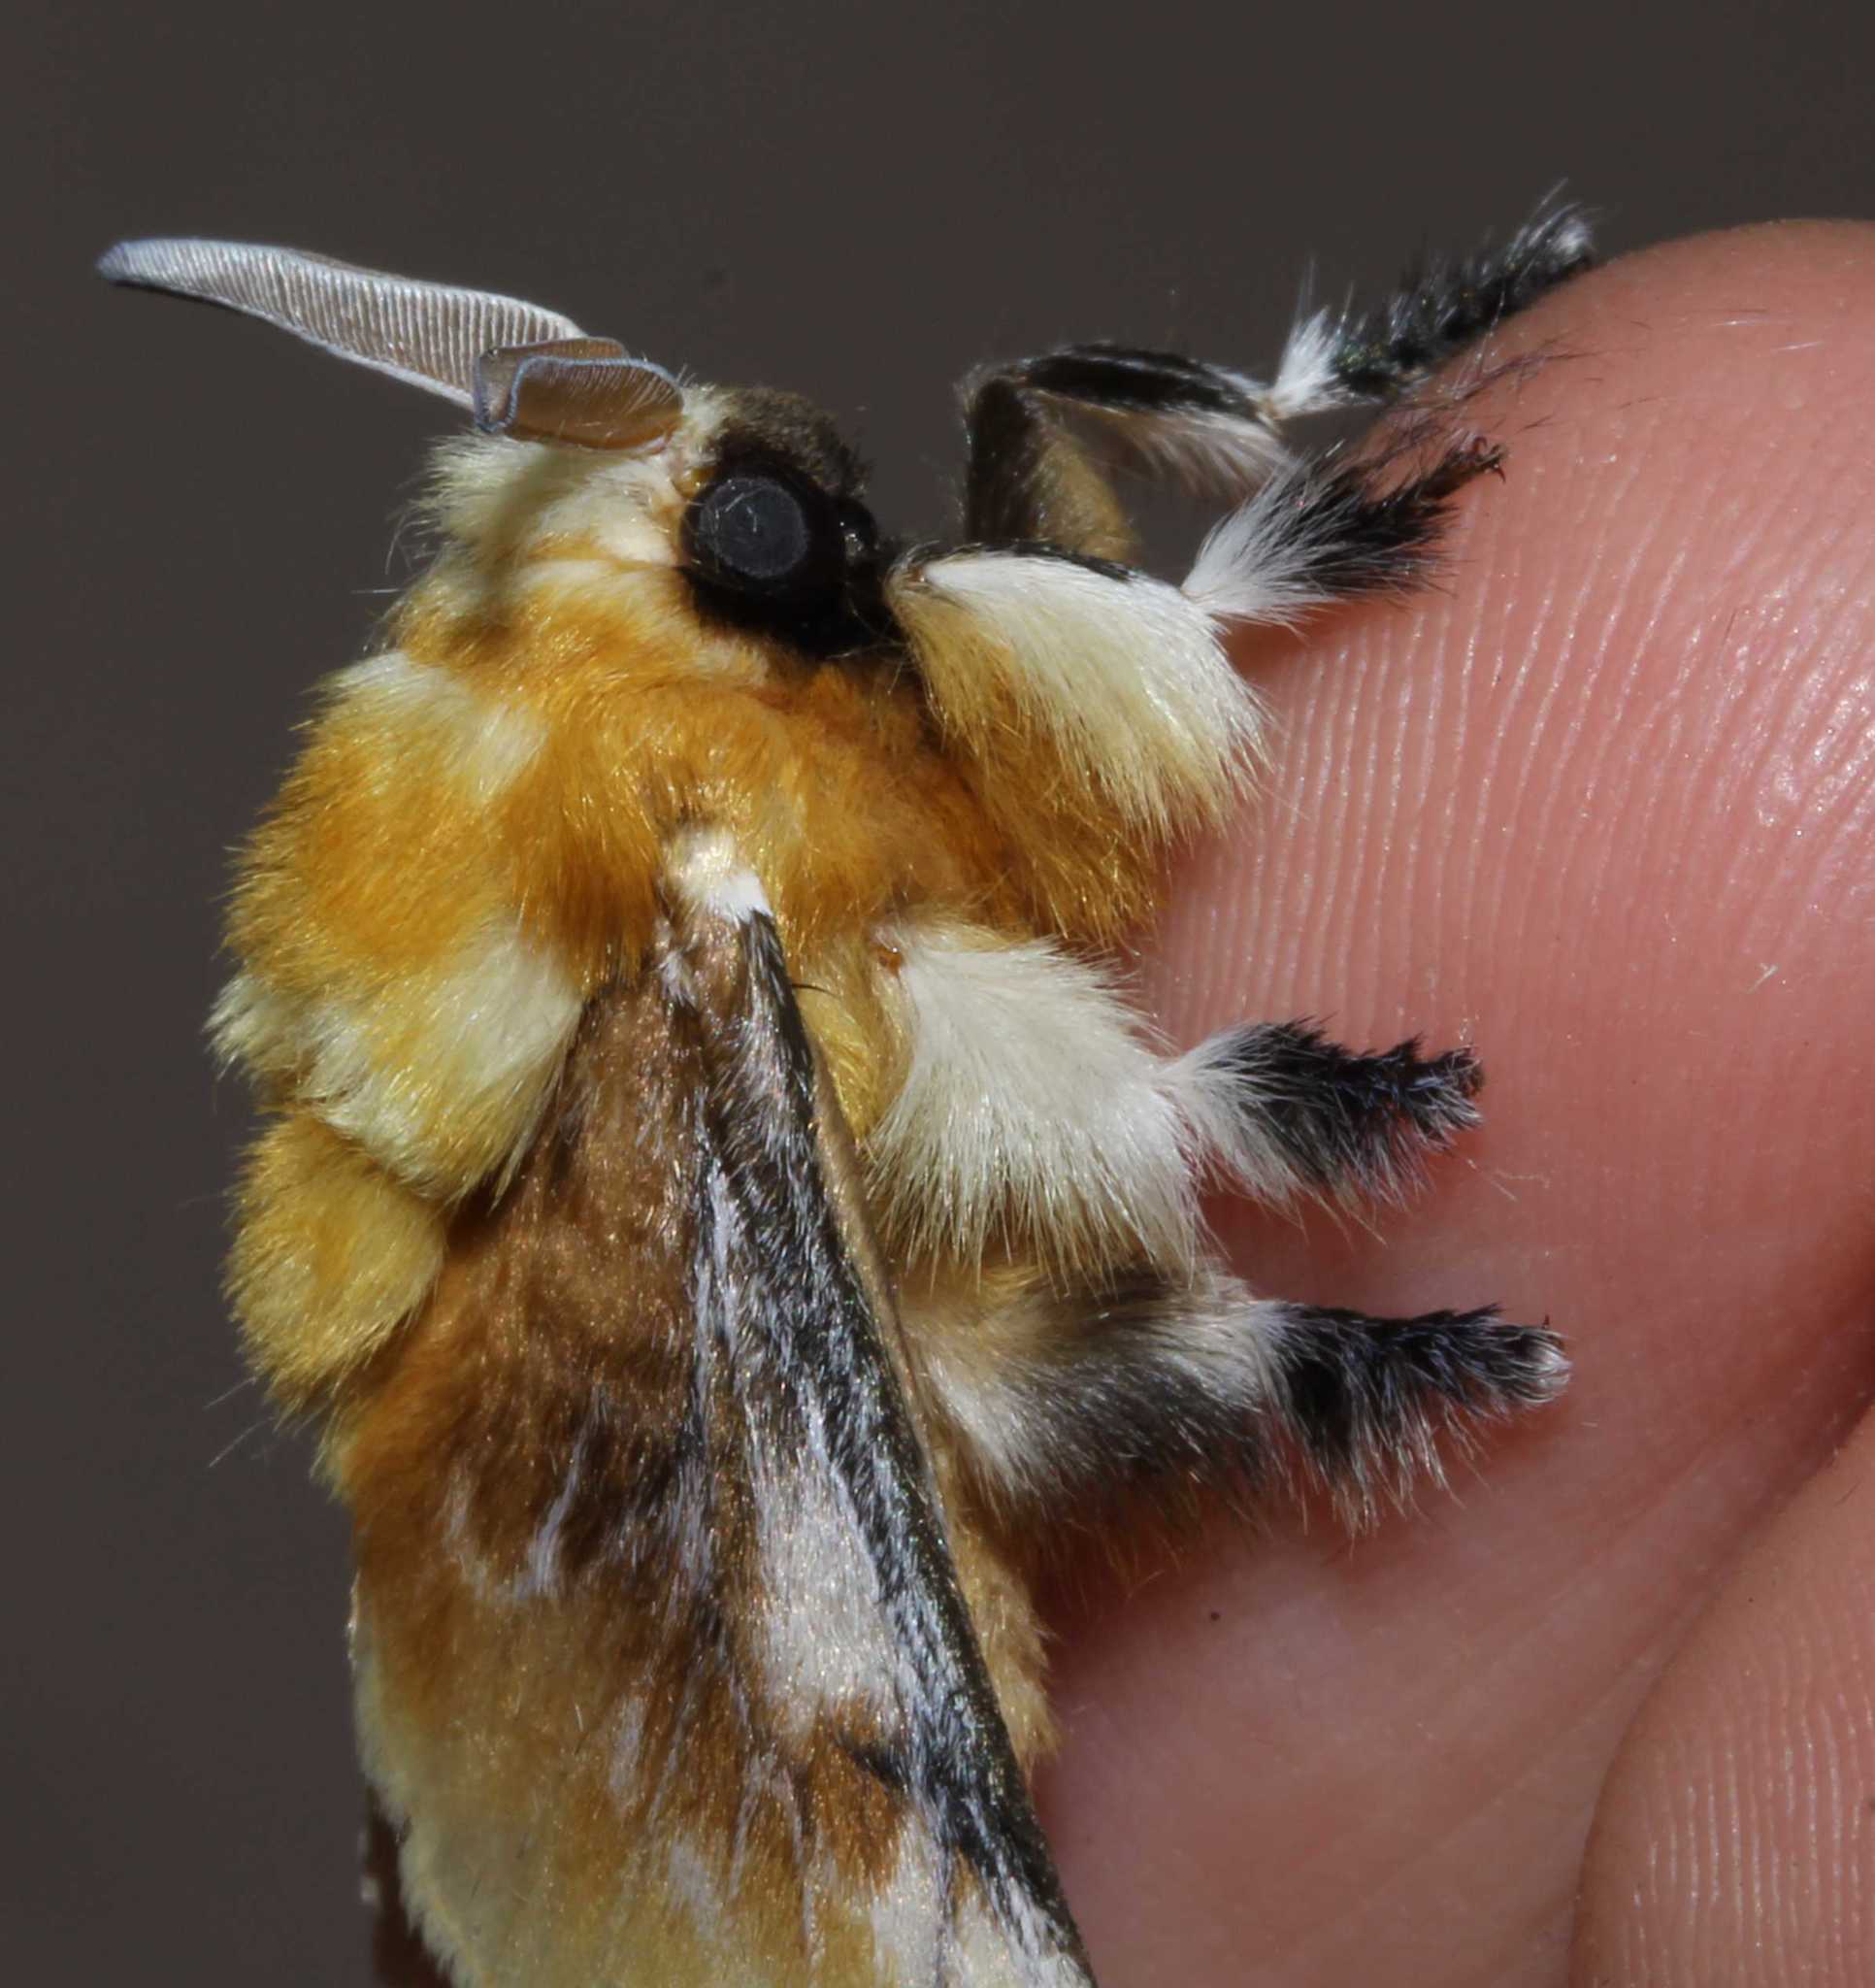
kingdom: Animalia
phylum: Arthropoda
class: Insecta
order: Lepidoptera
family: Megalopygidae
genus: Megalopyge
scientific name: Megalopyge
